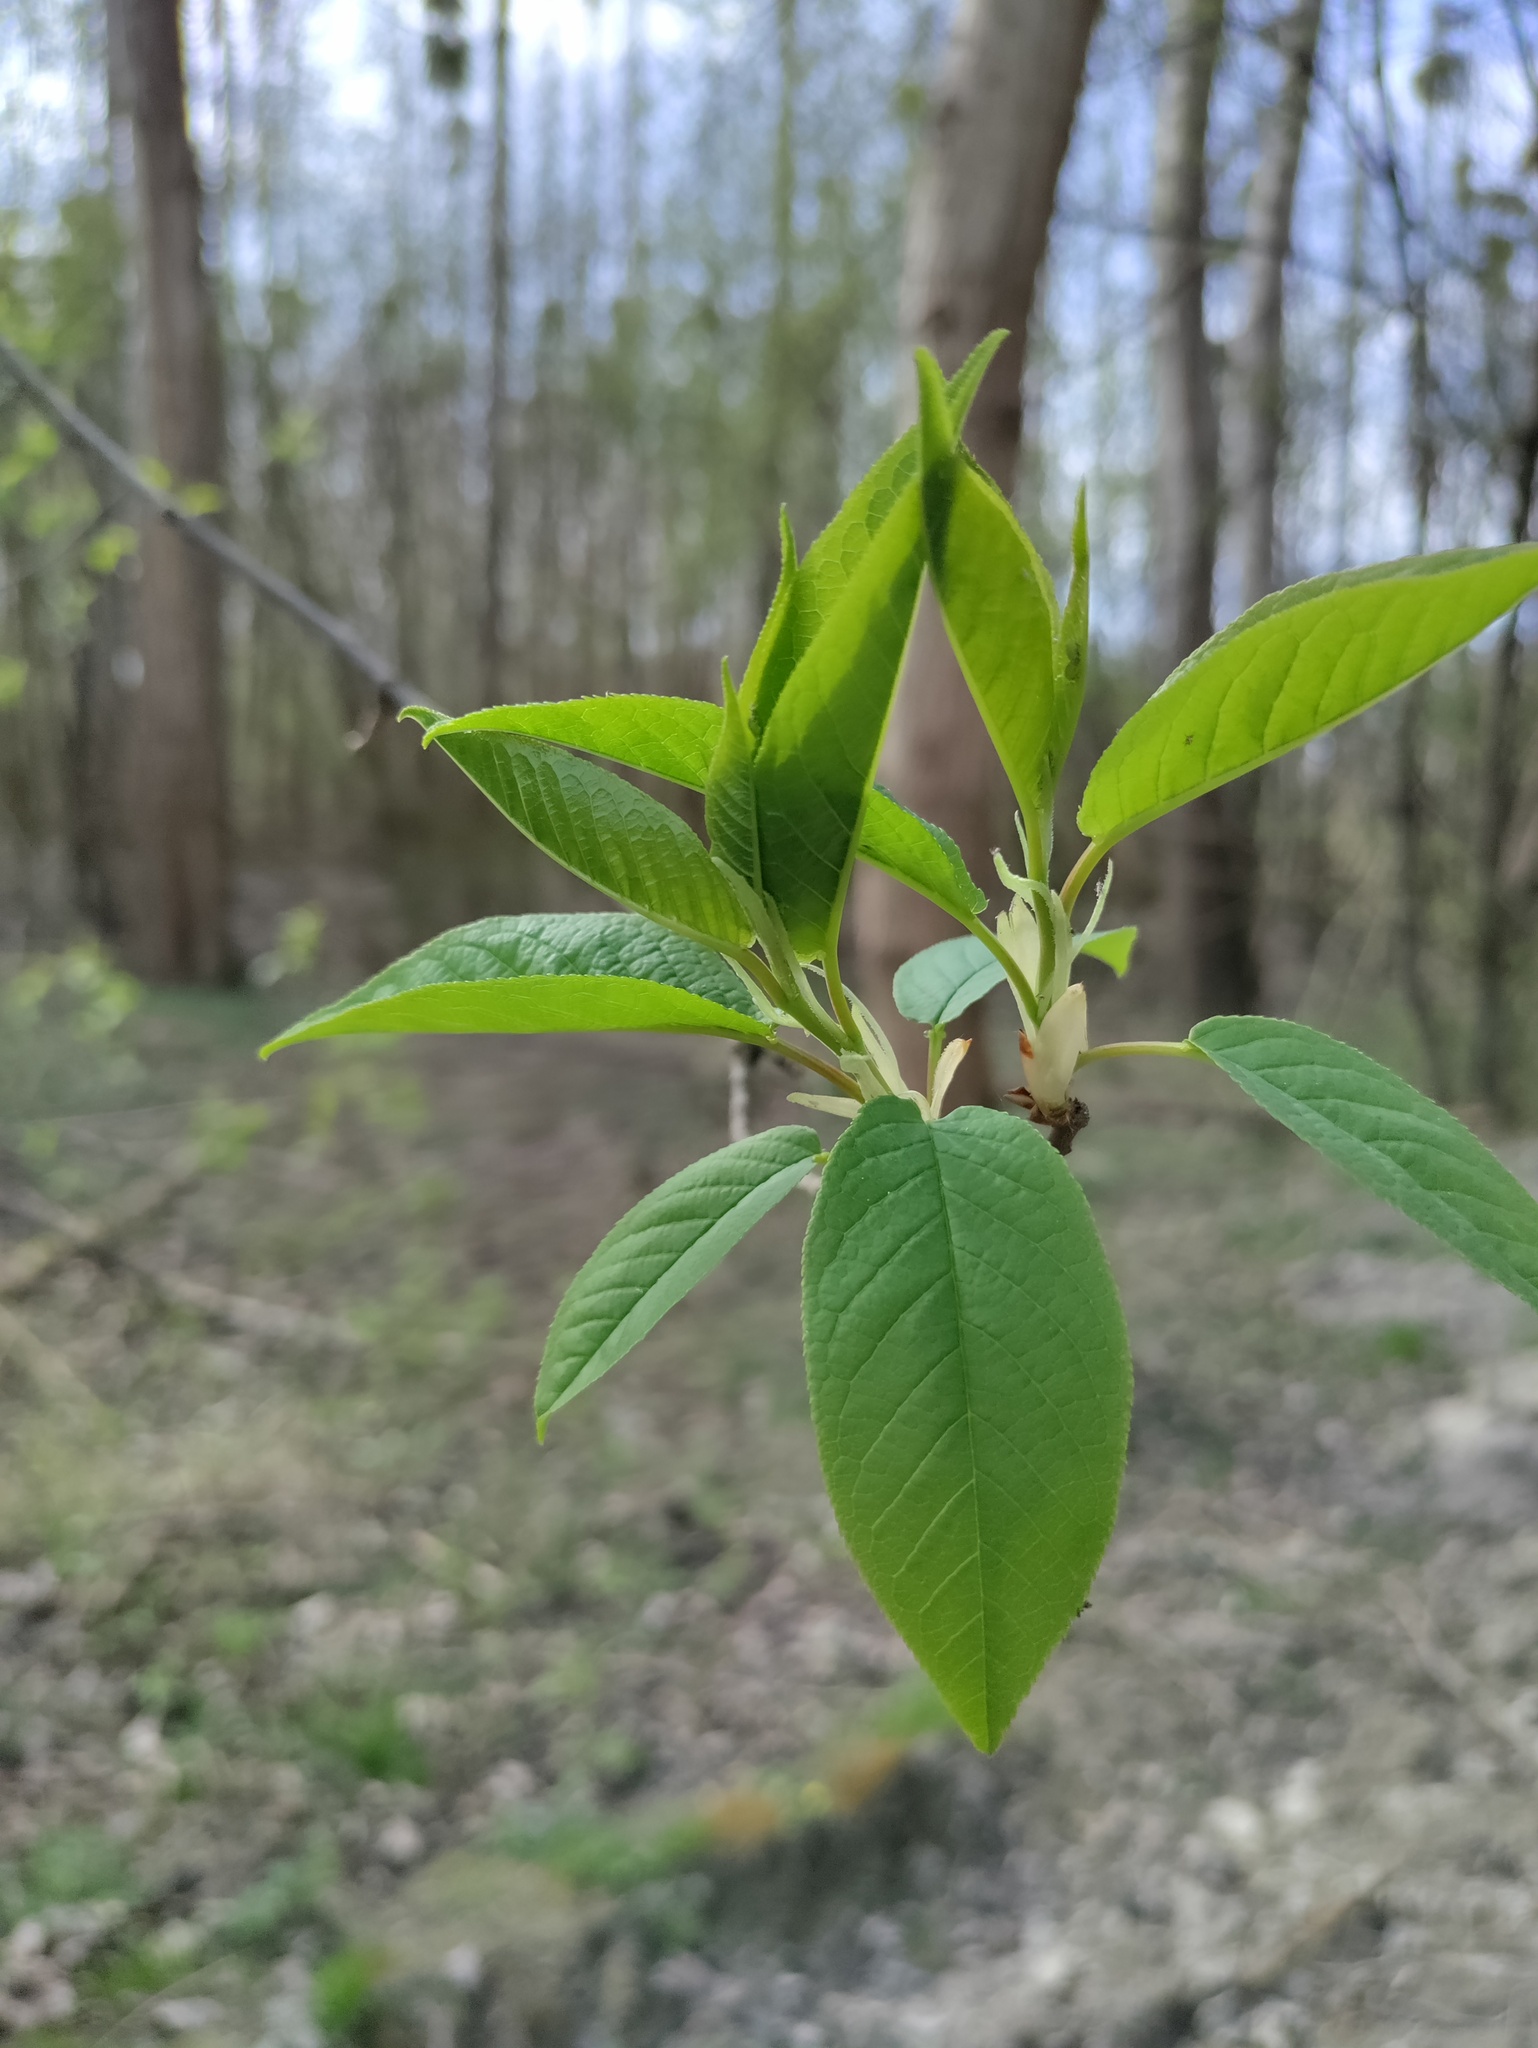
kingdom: Plantae
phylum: Tracheophyta
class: Magnoliopsida
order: Rosales
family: Rosaceae
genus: Prunus
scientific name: Prunus padus
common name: Bird cherry
